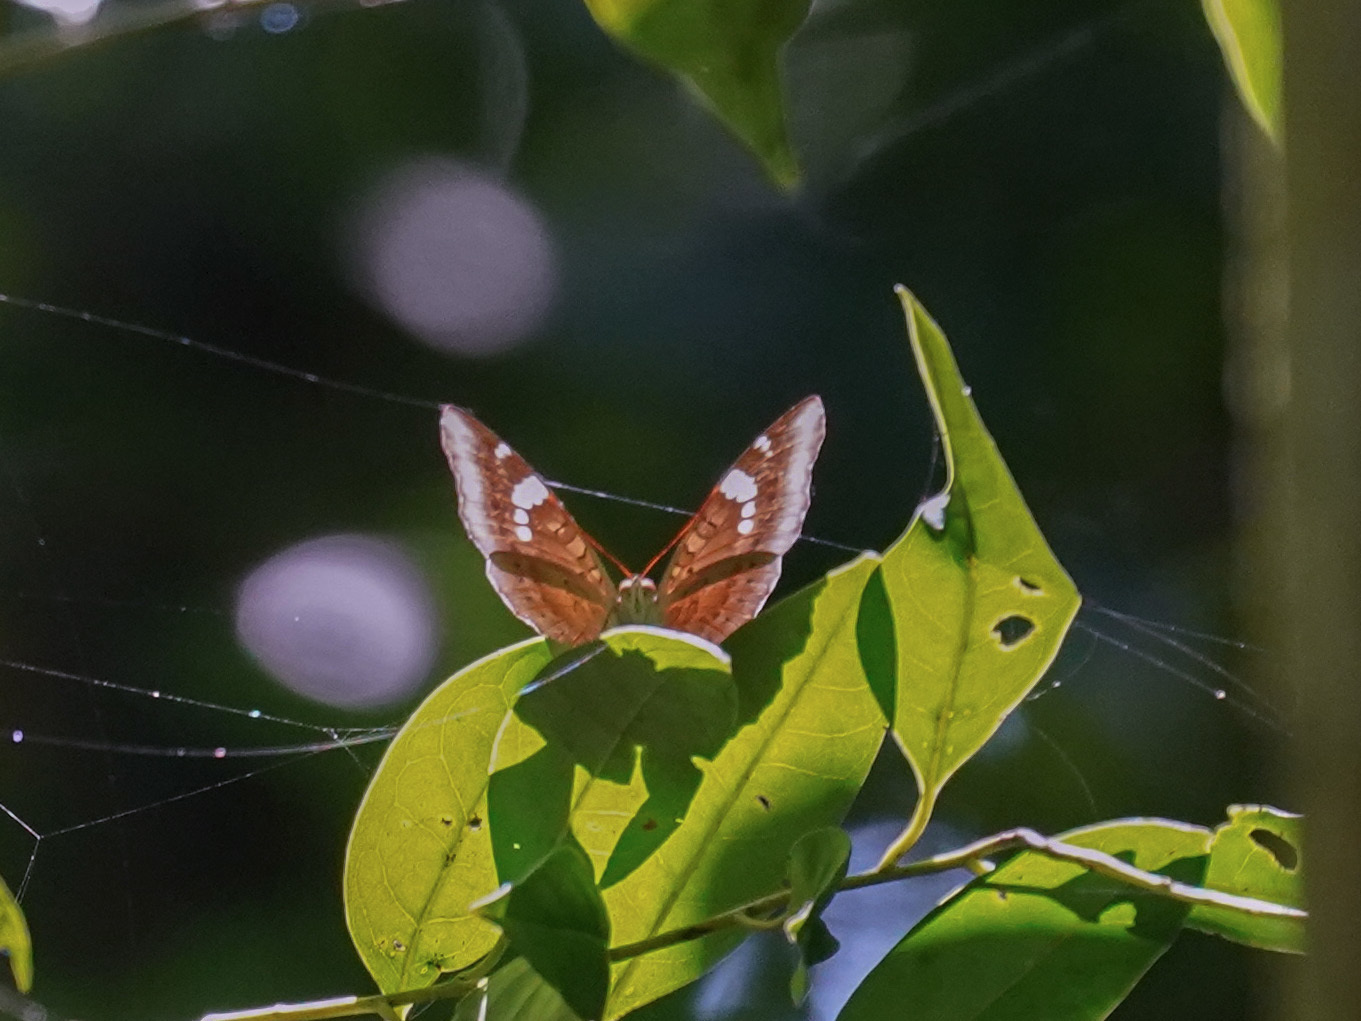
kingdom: Animalia
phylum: Arthropoda
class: Insecta
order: Lepidoptera
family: Nymphalidae
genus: Euthalia
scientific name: Euthalia aconthea
